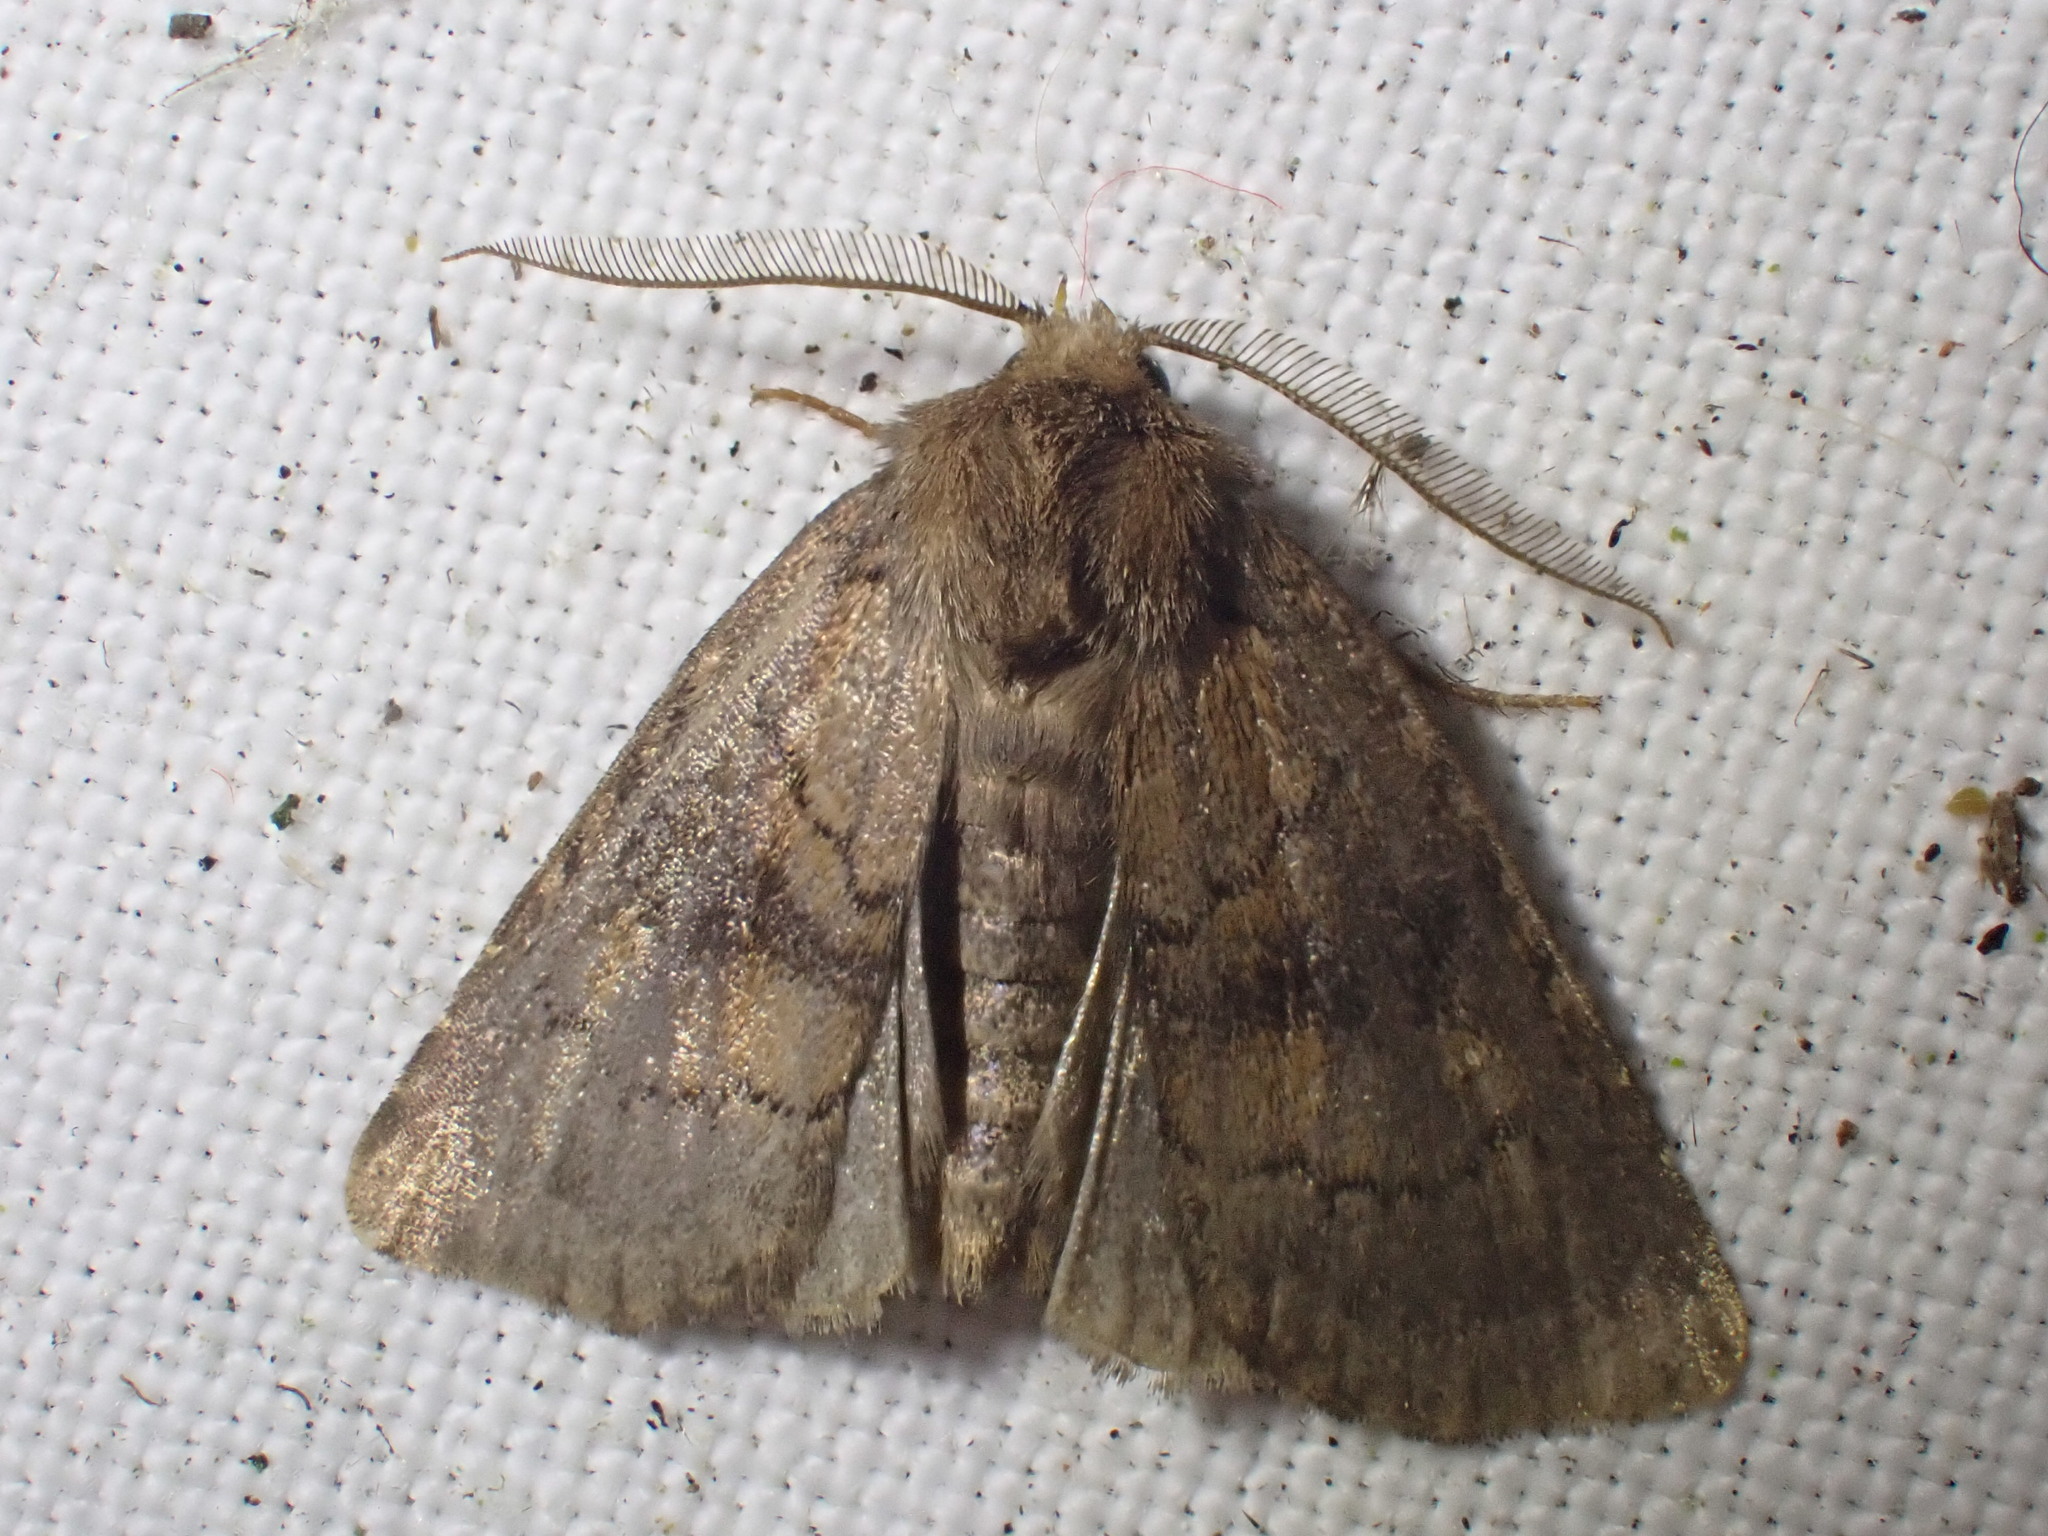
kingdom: Animalia
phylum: Arthropoda
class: Insecta
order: Lepidoptera
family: Noctuidae
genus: Charanyca
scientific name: Charanyca ferruginea
